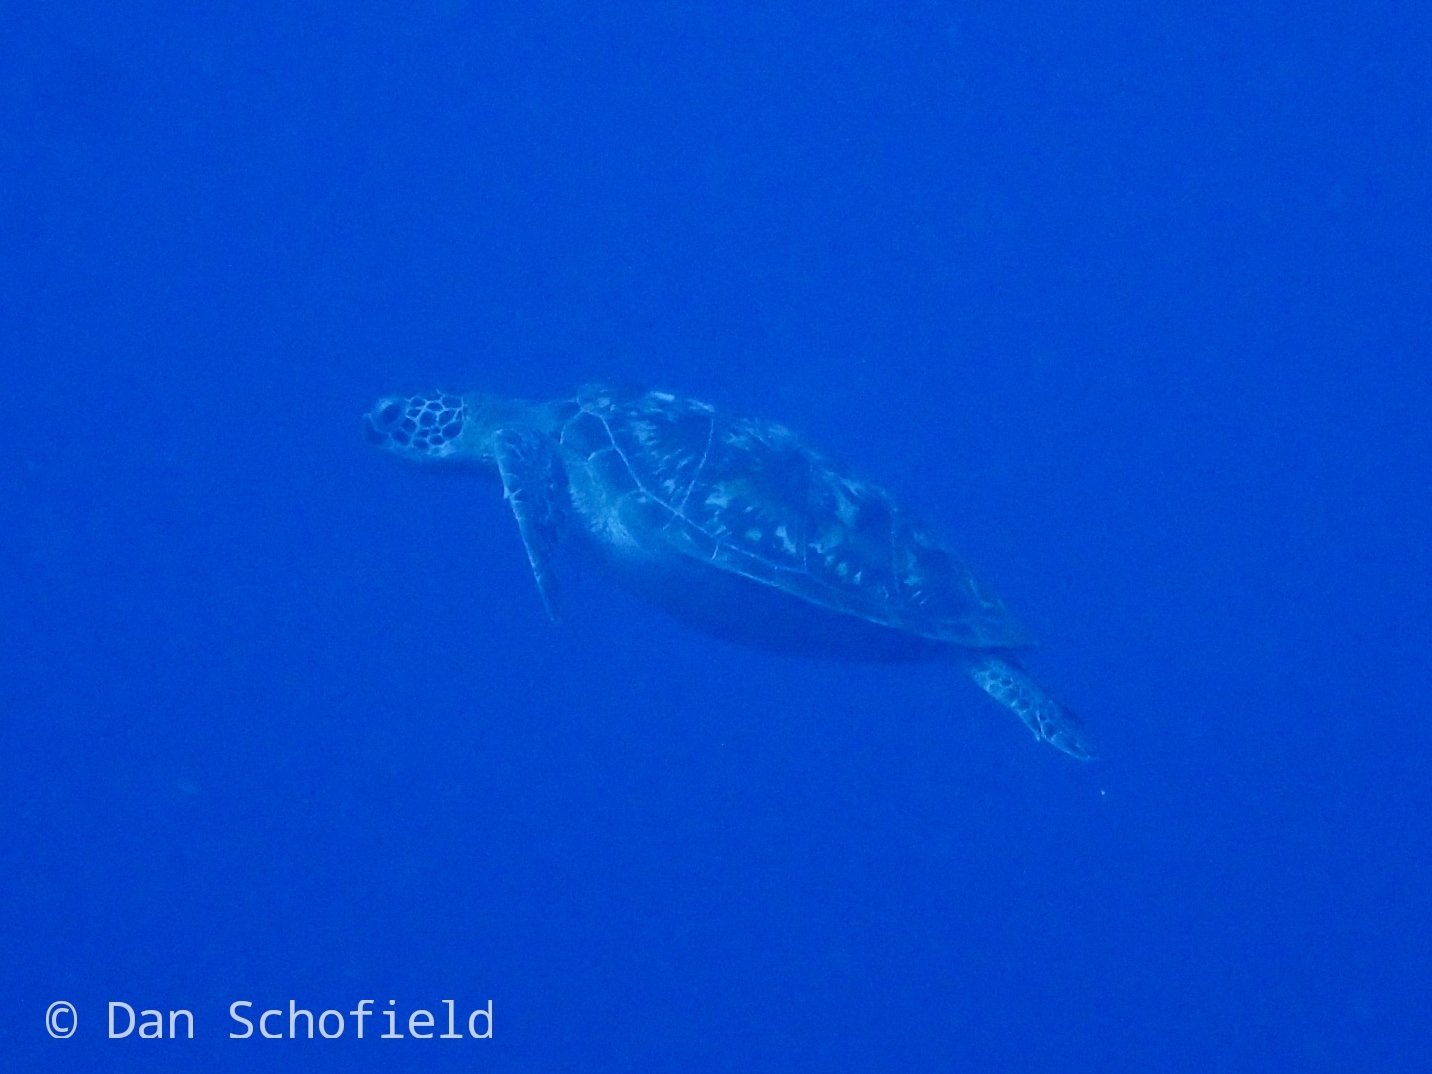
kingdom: Animalia
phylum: Chordata
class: Testudines
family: Cheloniidae
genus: Chelonia
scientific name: Chelonia mydas
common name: Green turtle
